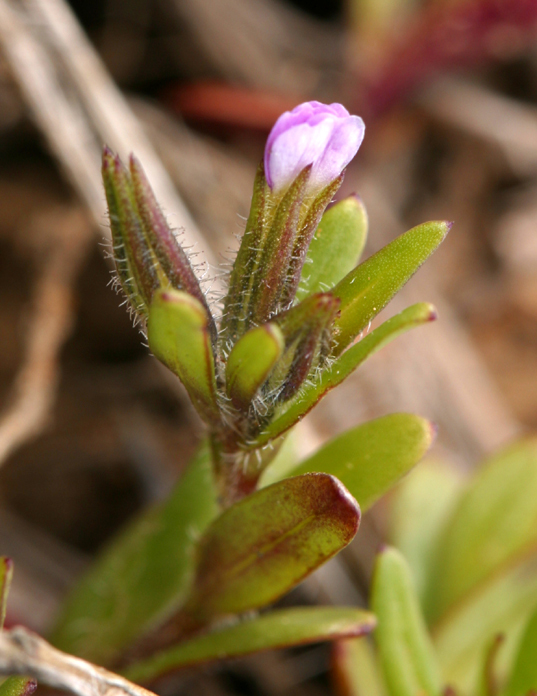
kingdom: Plantae
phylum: Tracheophyta
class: Magnoliopsida
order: Ericales
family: Polemoniaceae
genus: Phlox
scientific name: Phlox gracilis
